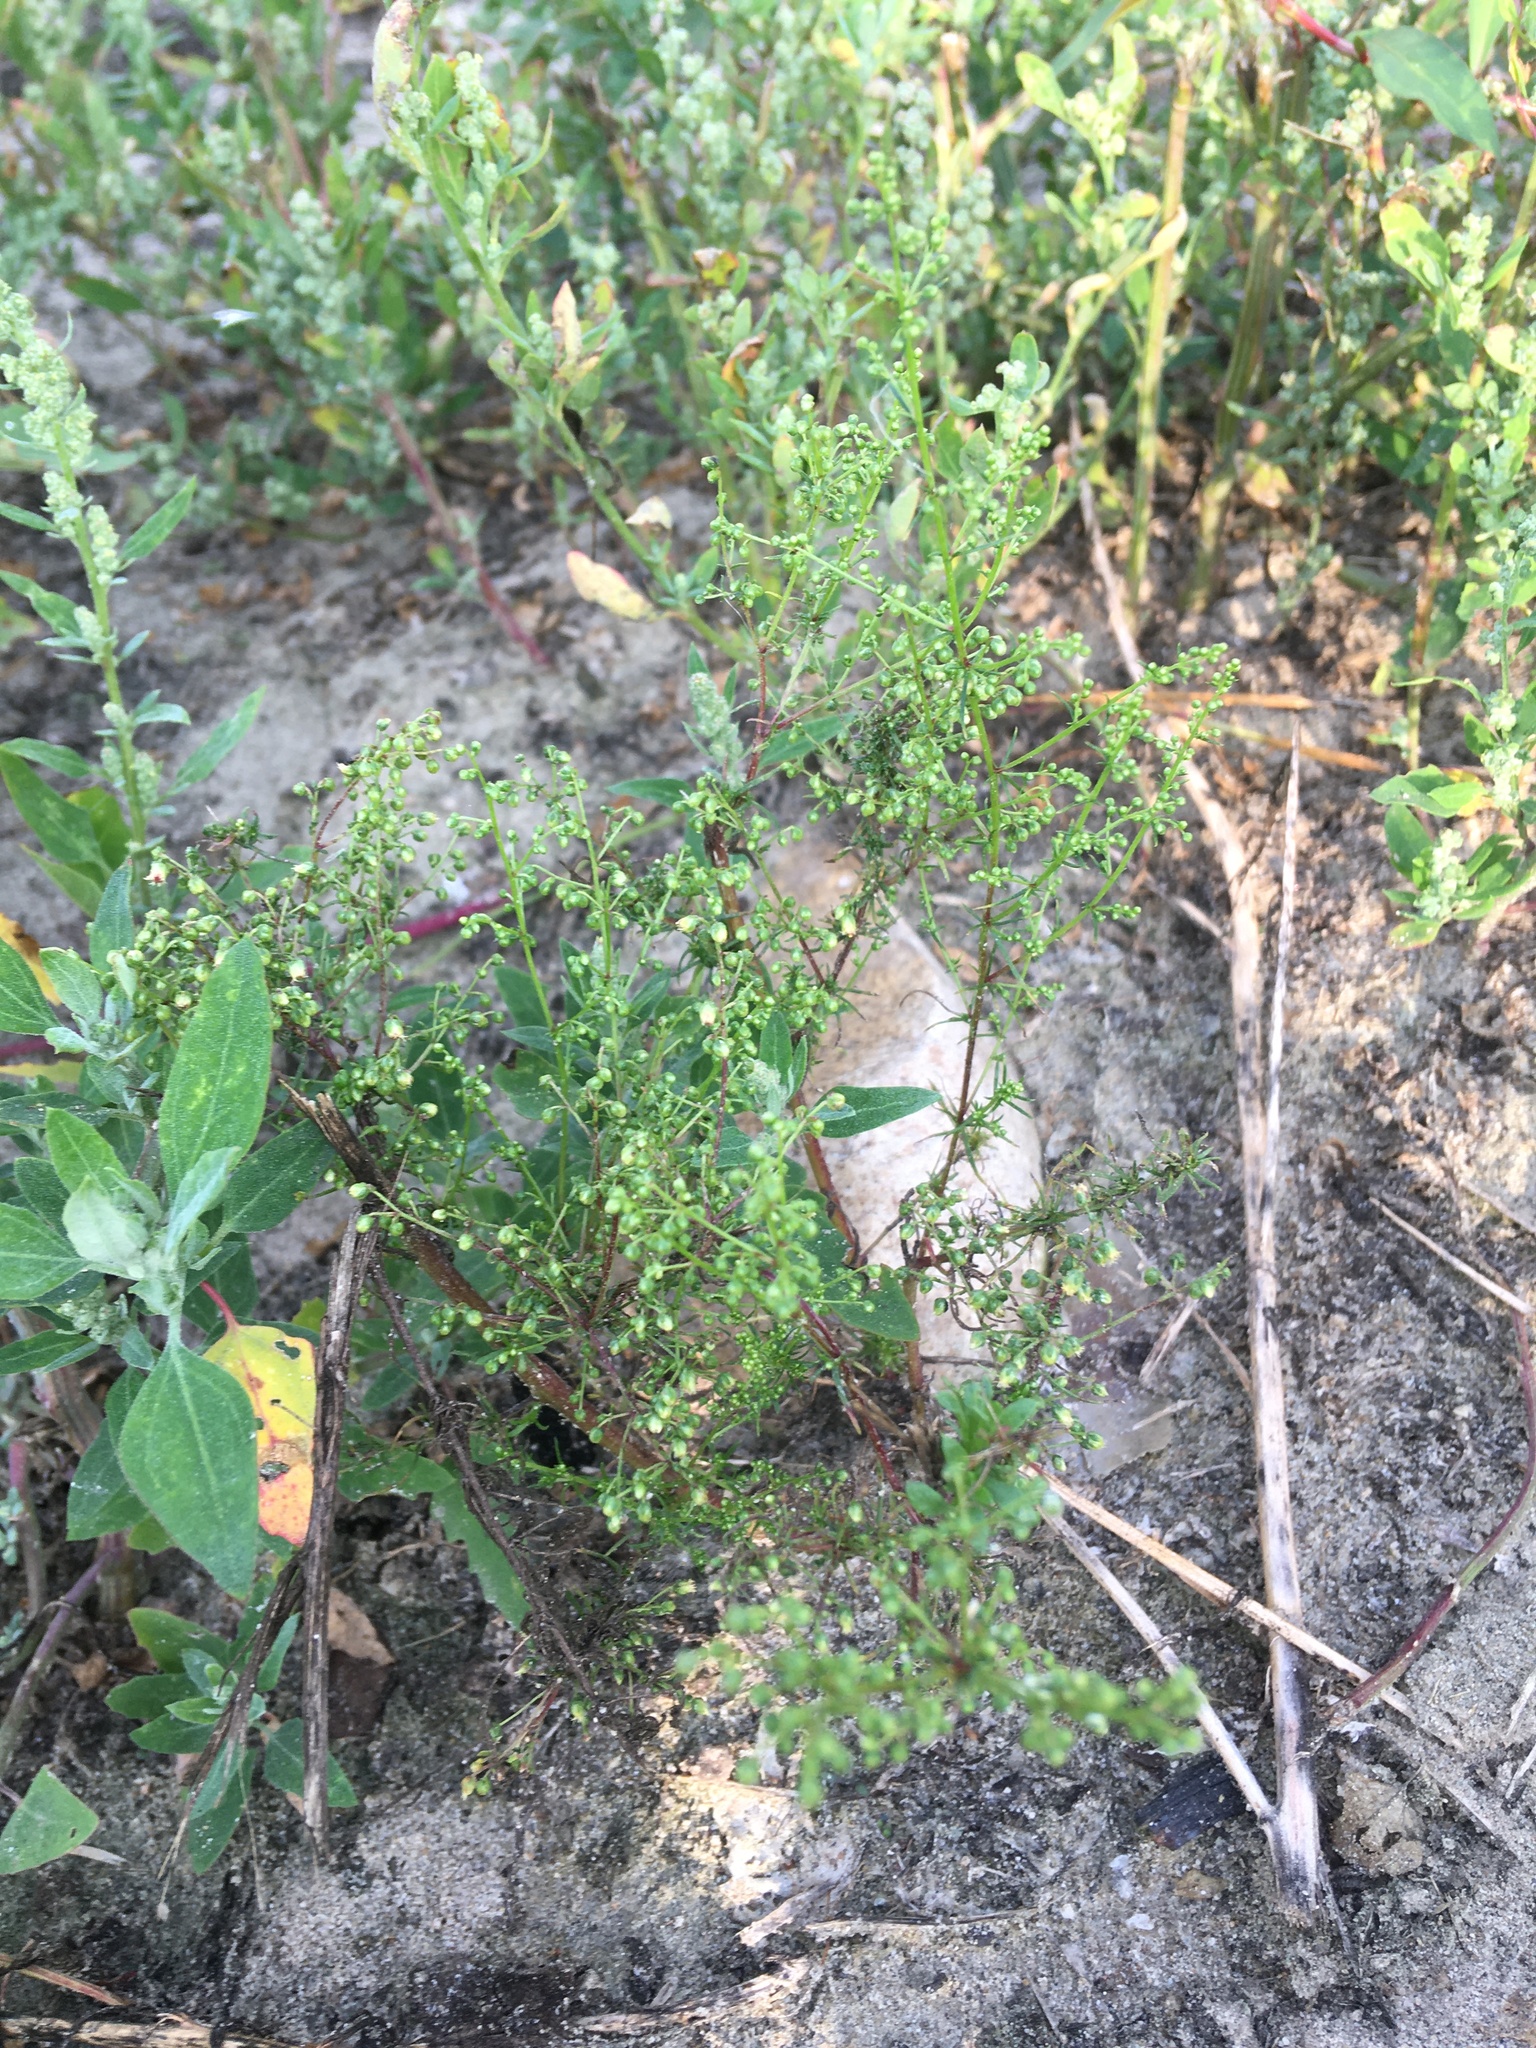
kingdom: Plantae
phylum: Tracheophyta
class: Magnoliopsida
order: Asterales
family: Asteraceae
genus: Artemisia
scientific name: Artemisia scoparia
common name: Redstem wormwood
